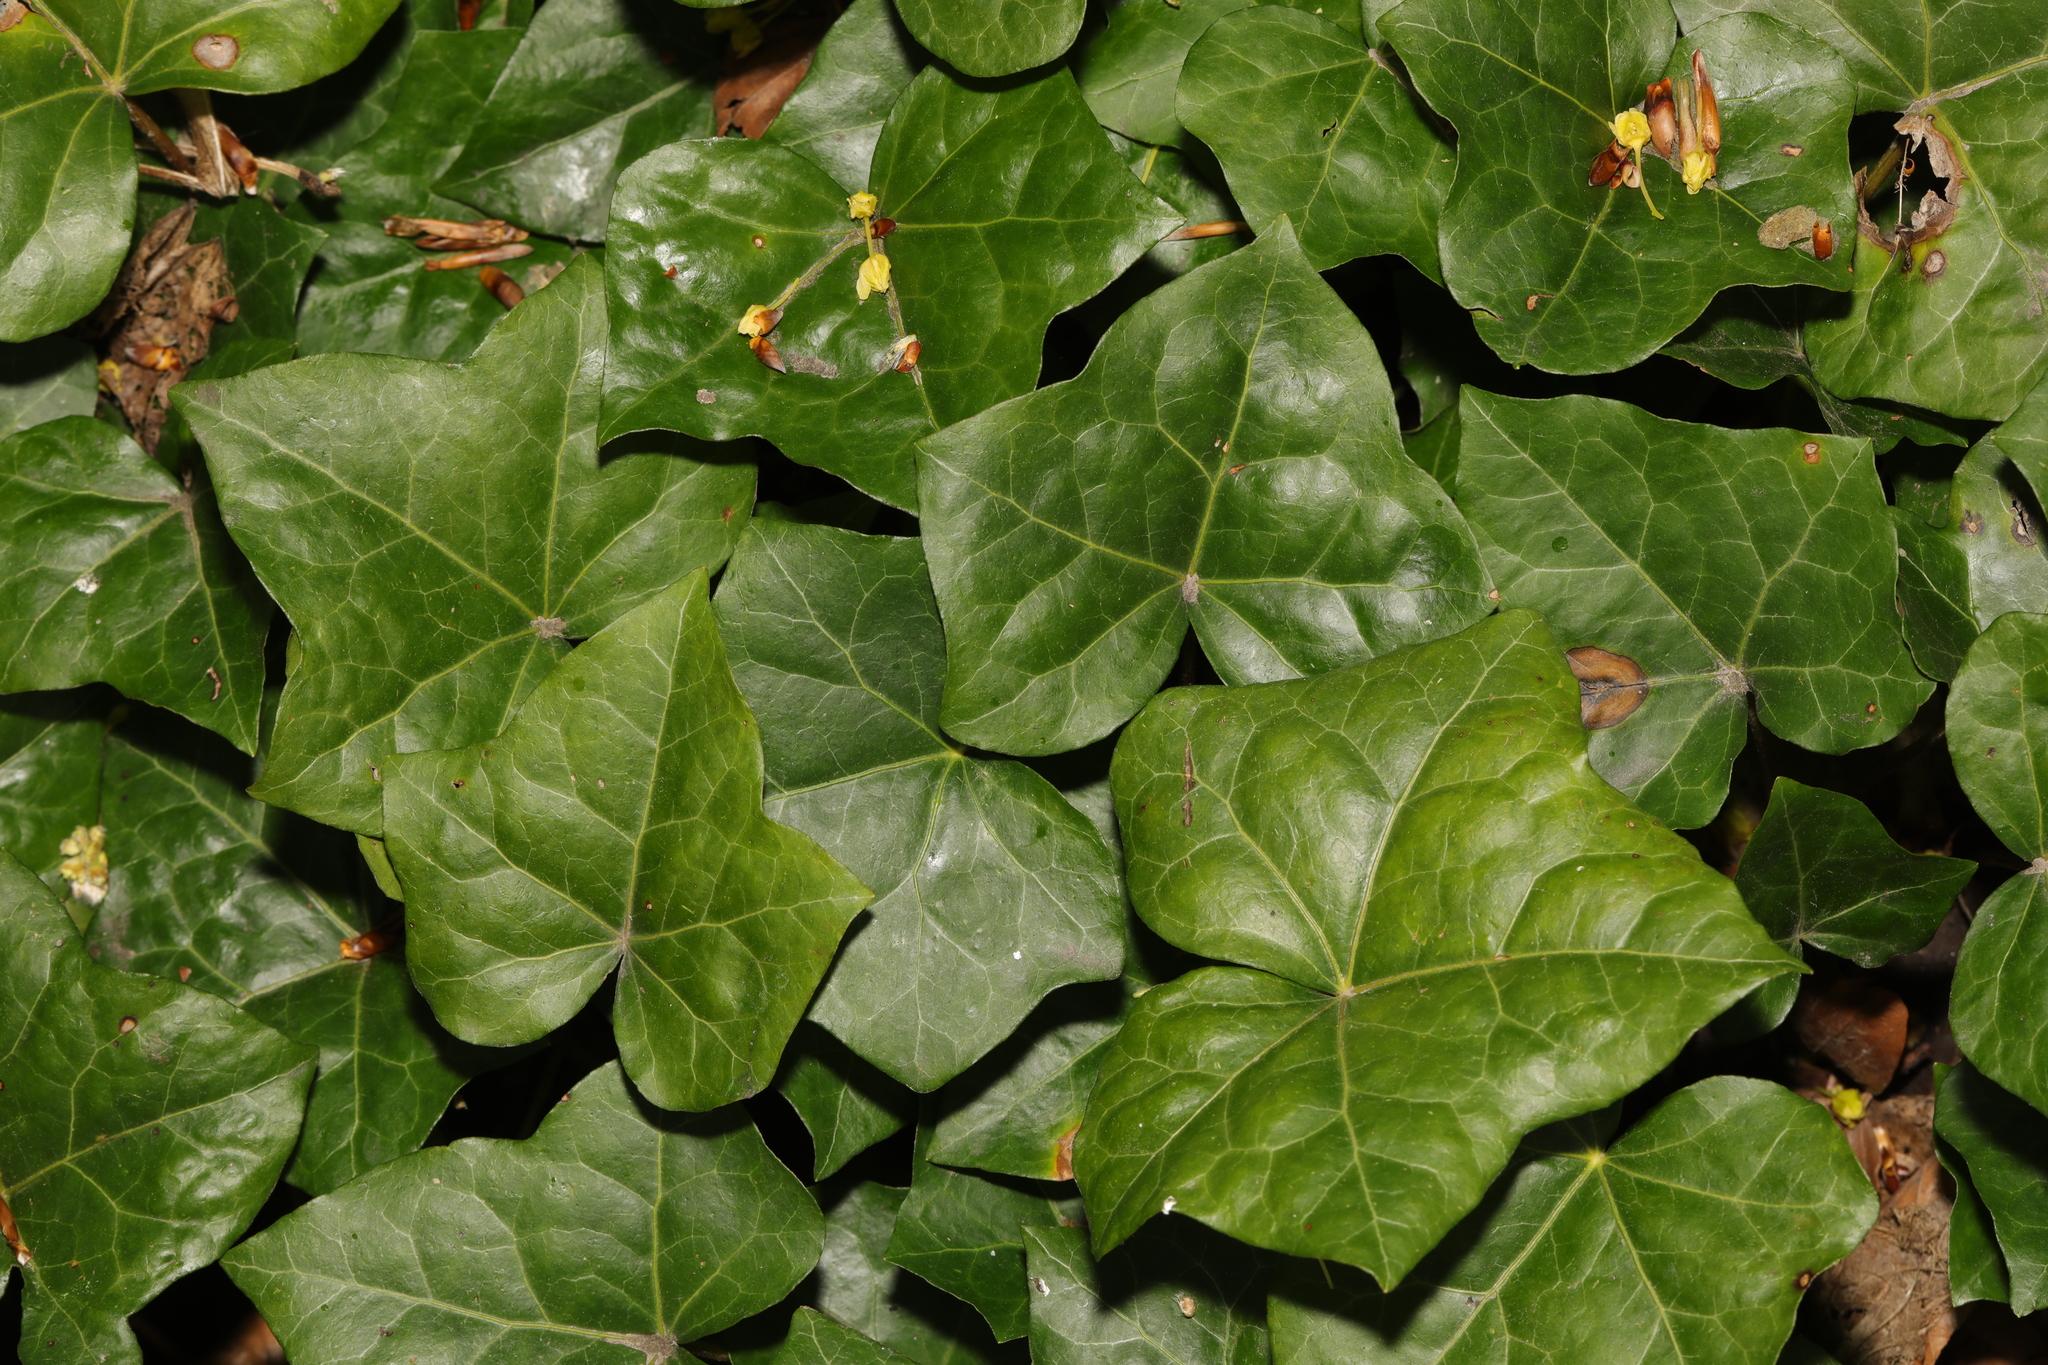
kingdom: Plantae
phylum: Tracheophyta
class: Magnoliopsida
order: Apiales
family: Araliaceae
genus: Hedera
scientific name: Hedera helix
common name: Ivy
